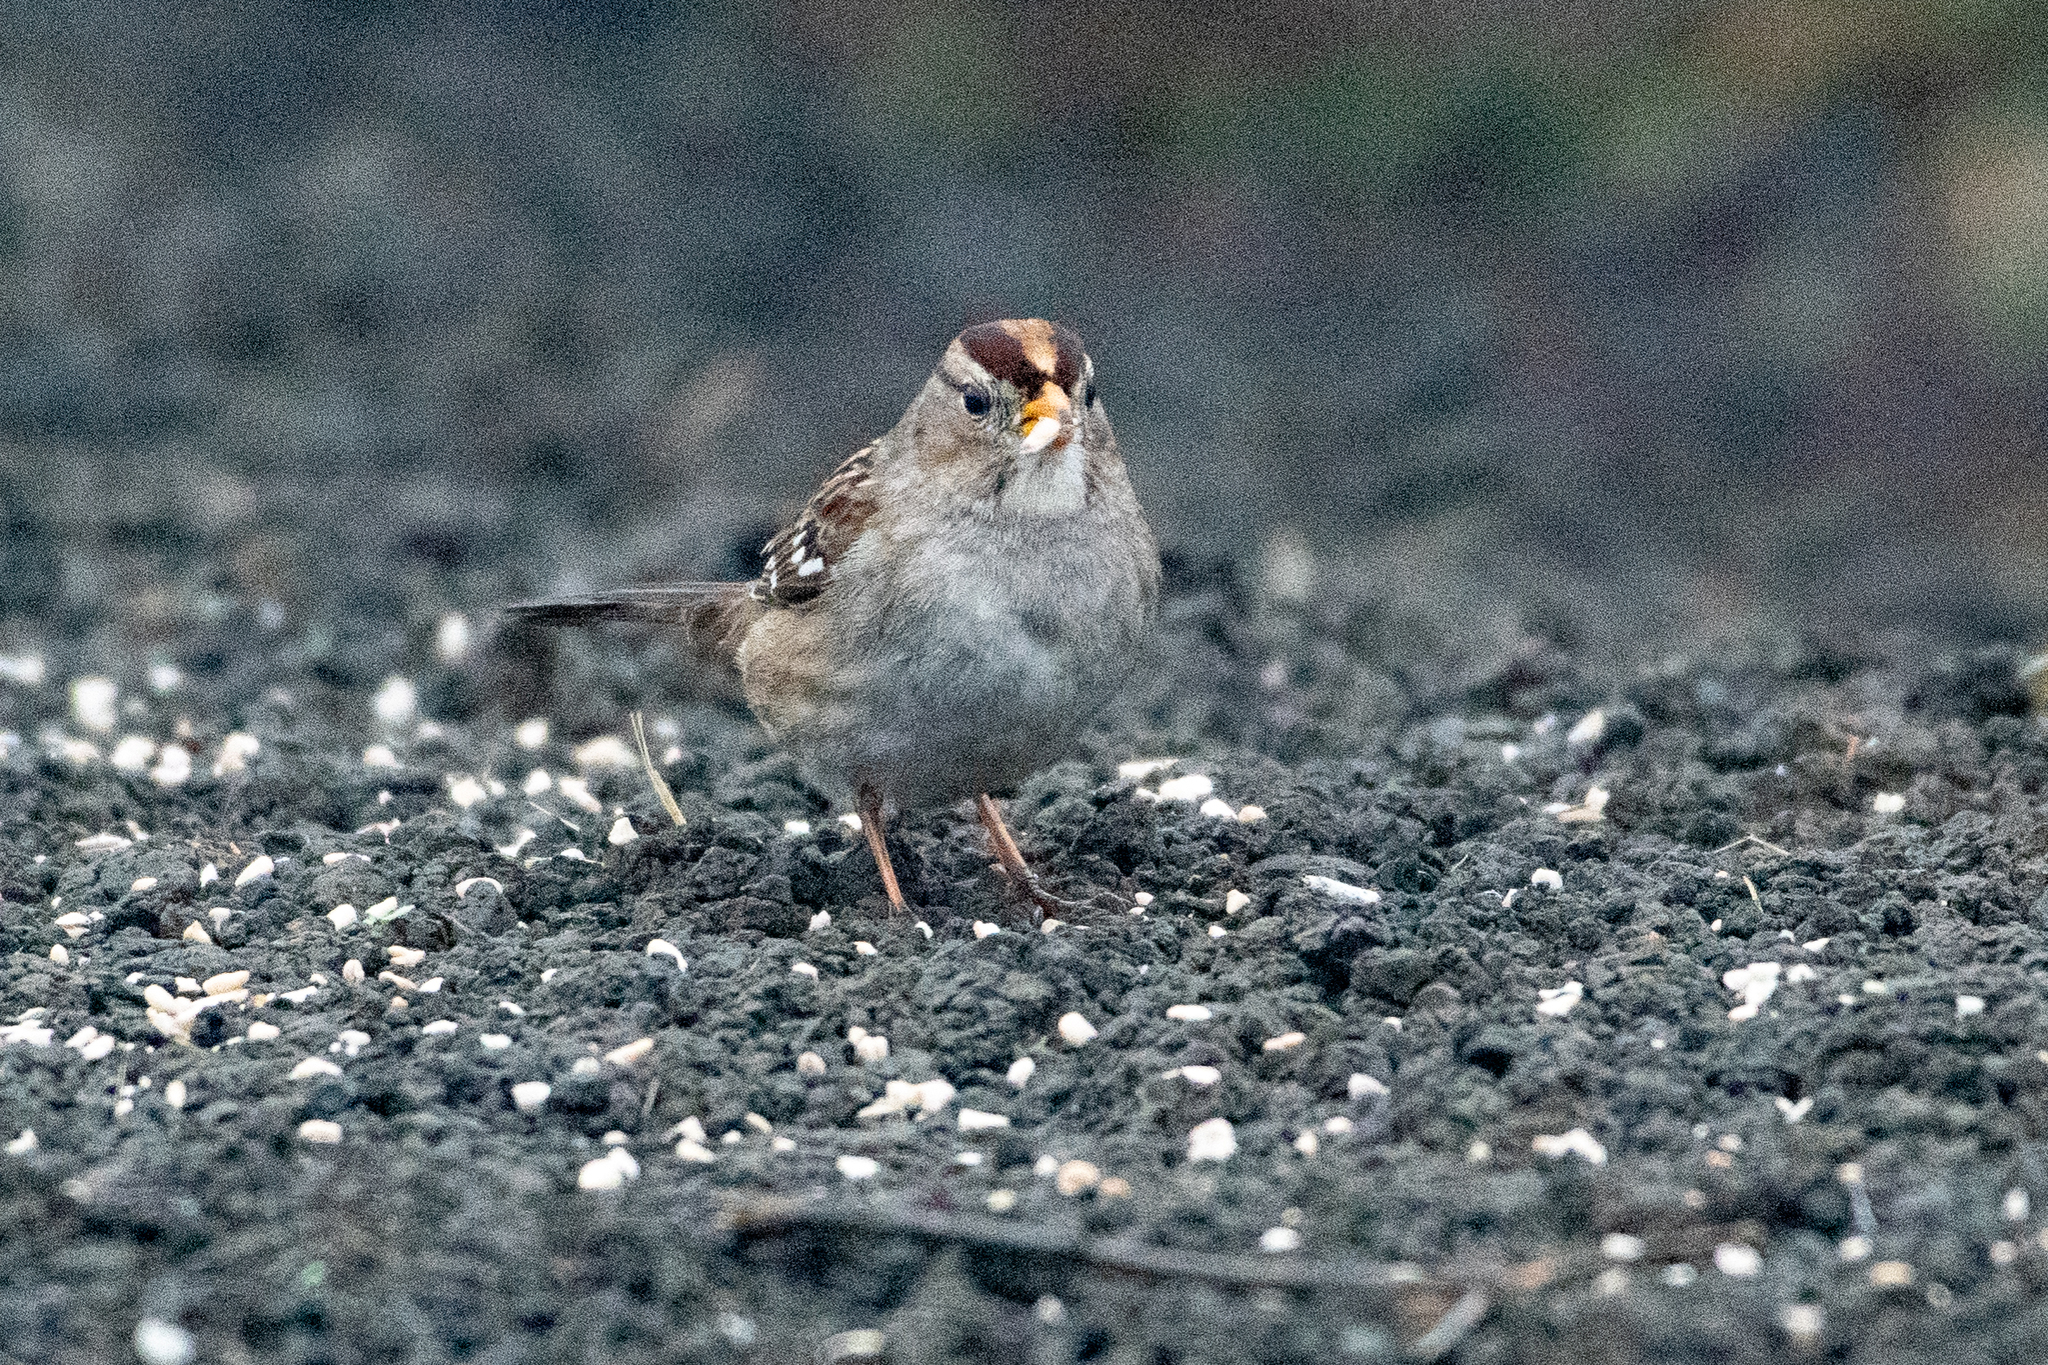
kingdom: Animalia
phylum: Chordata
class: Aves
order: Passeriformes
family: Passerellidae
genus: Zonotrichia
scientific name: Zonotrichia leucophrys
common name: White-crowned sparrow
